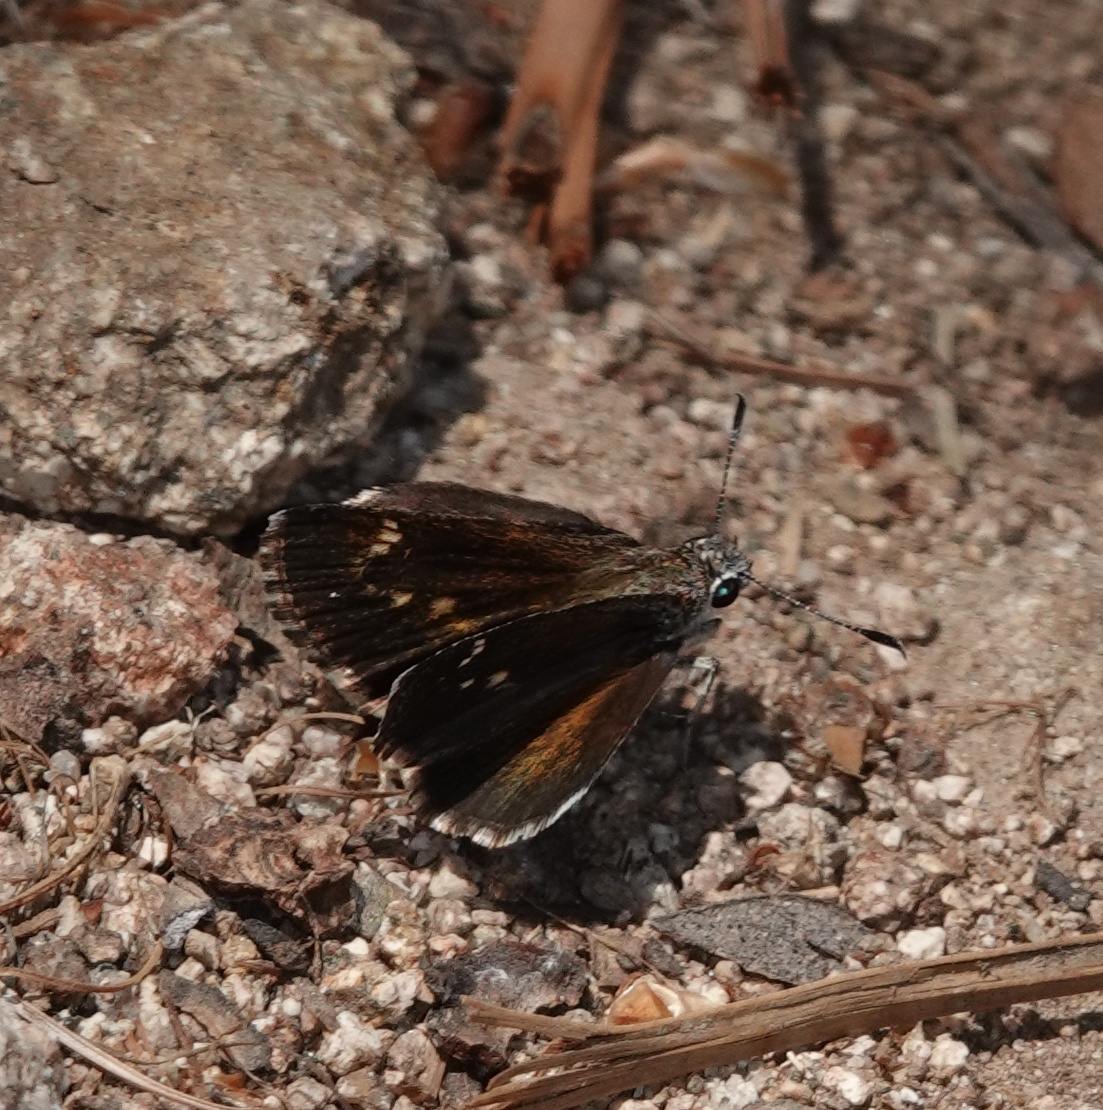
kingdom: Animalia
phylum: Arthropoda
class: Insecta
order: Lepidoptera
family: Hesperiidae
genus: Mastor
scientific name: Mastor aenus
